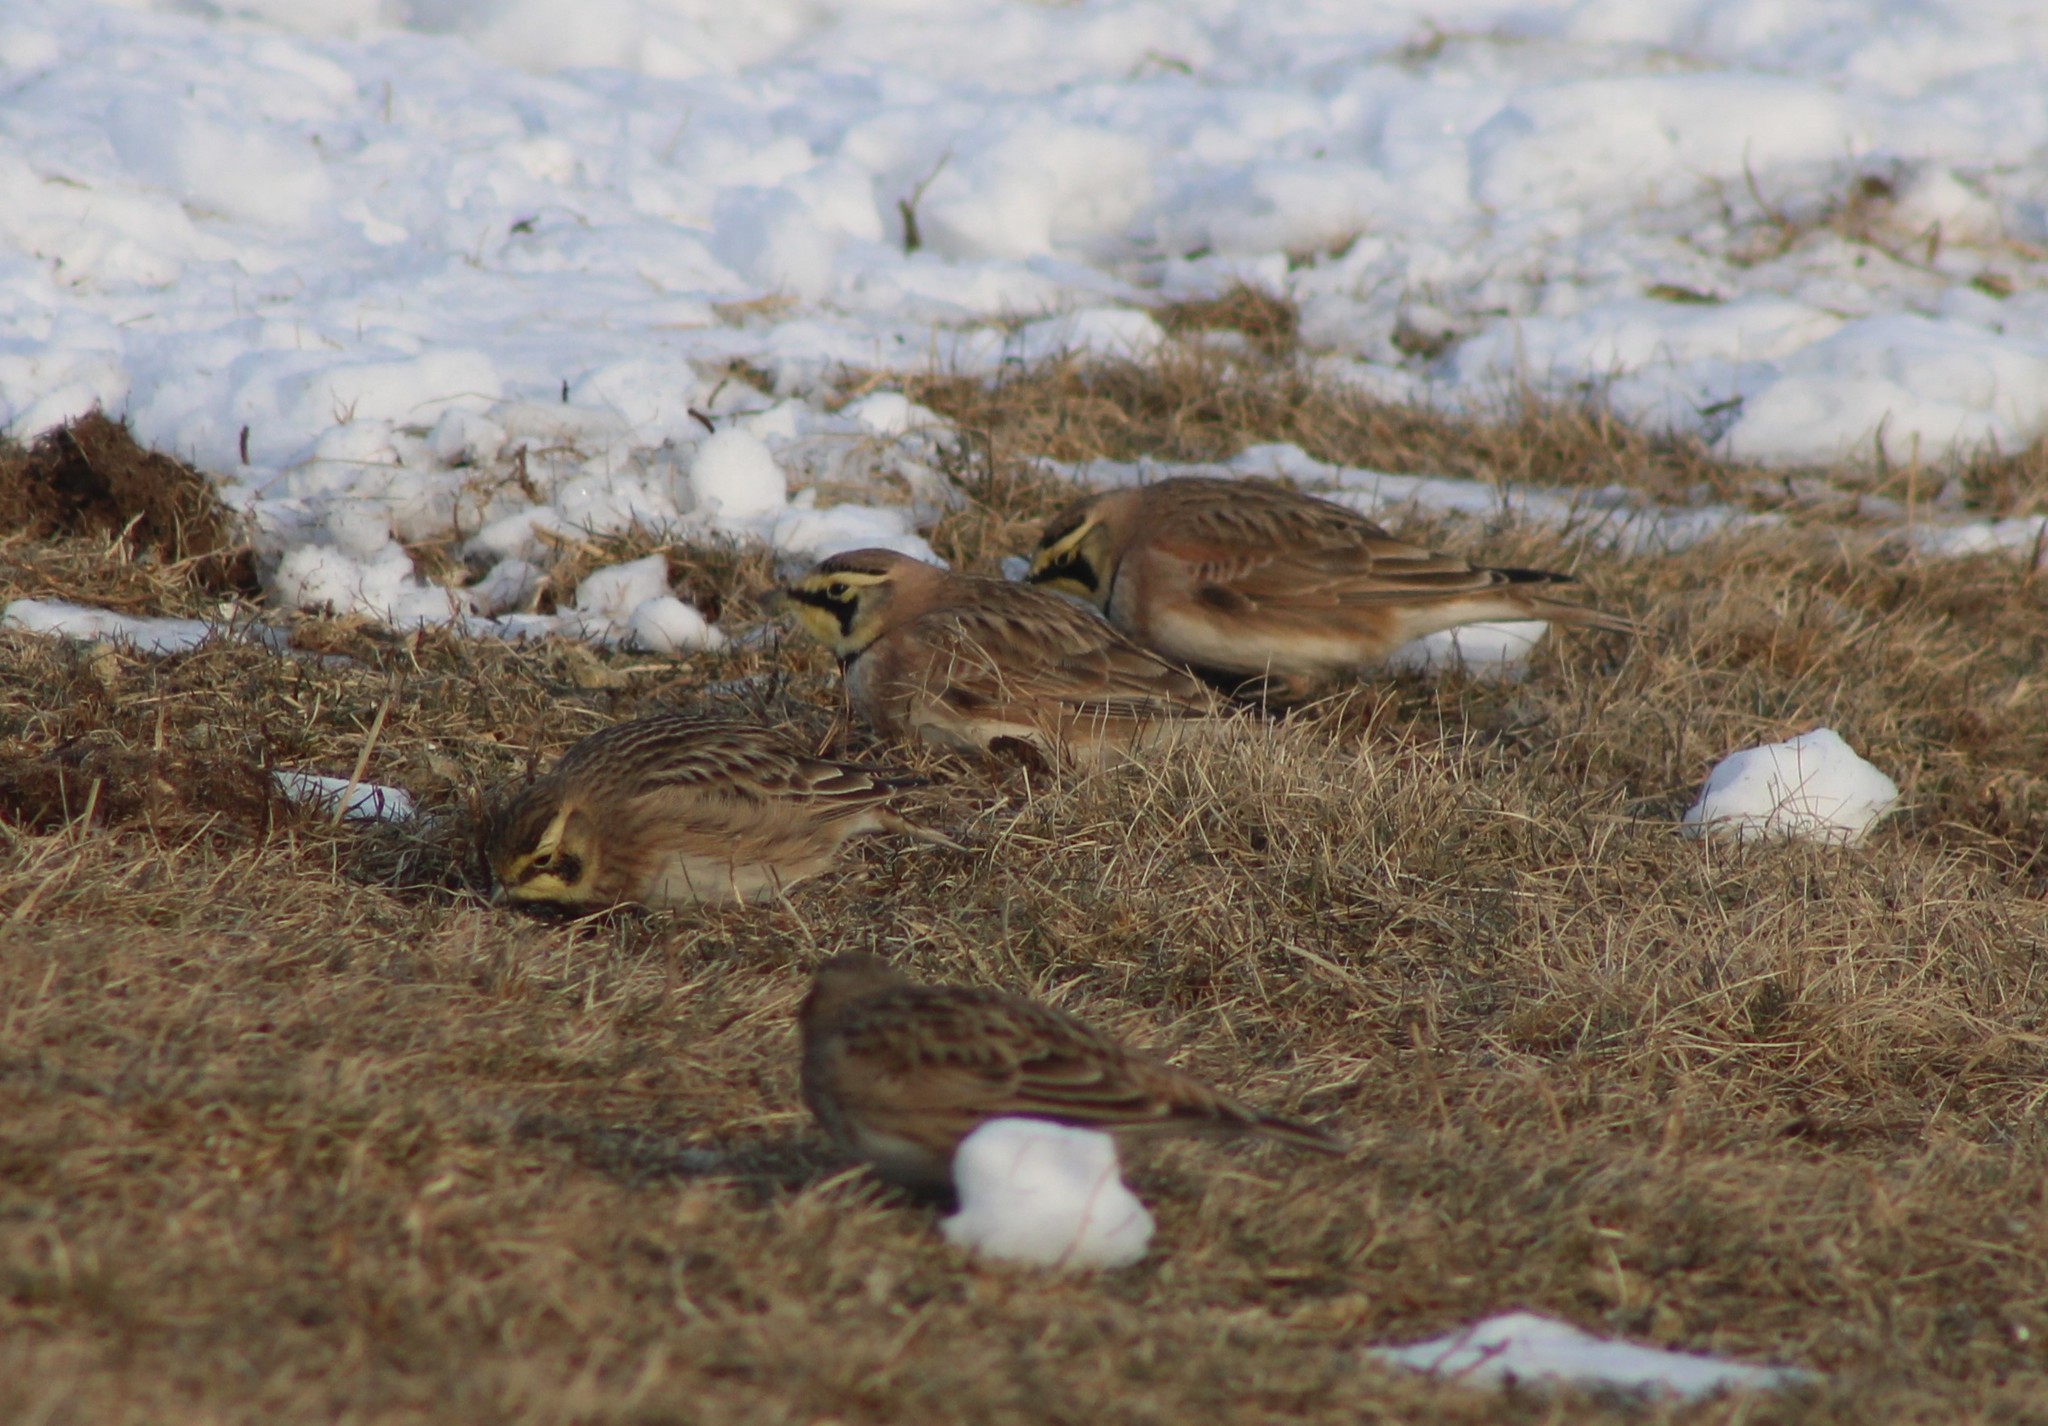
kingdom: Animalia
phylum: Chordata
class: Aves
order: Passeriformes
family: Alaudidae
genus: Eremophila
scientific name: Eremophila alpestris
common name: Horned lark
